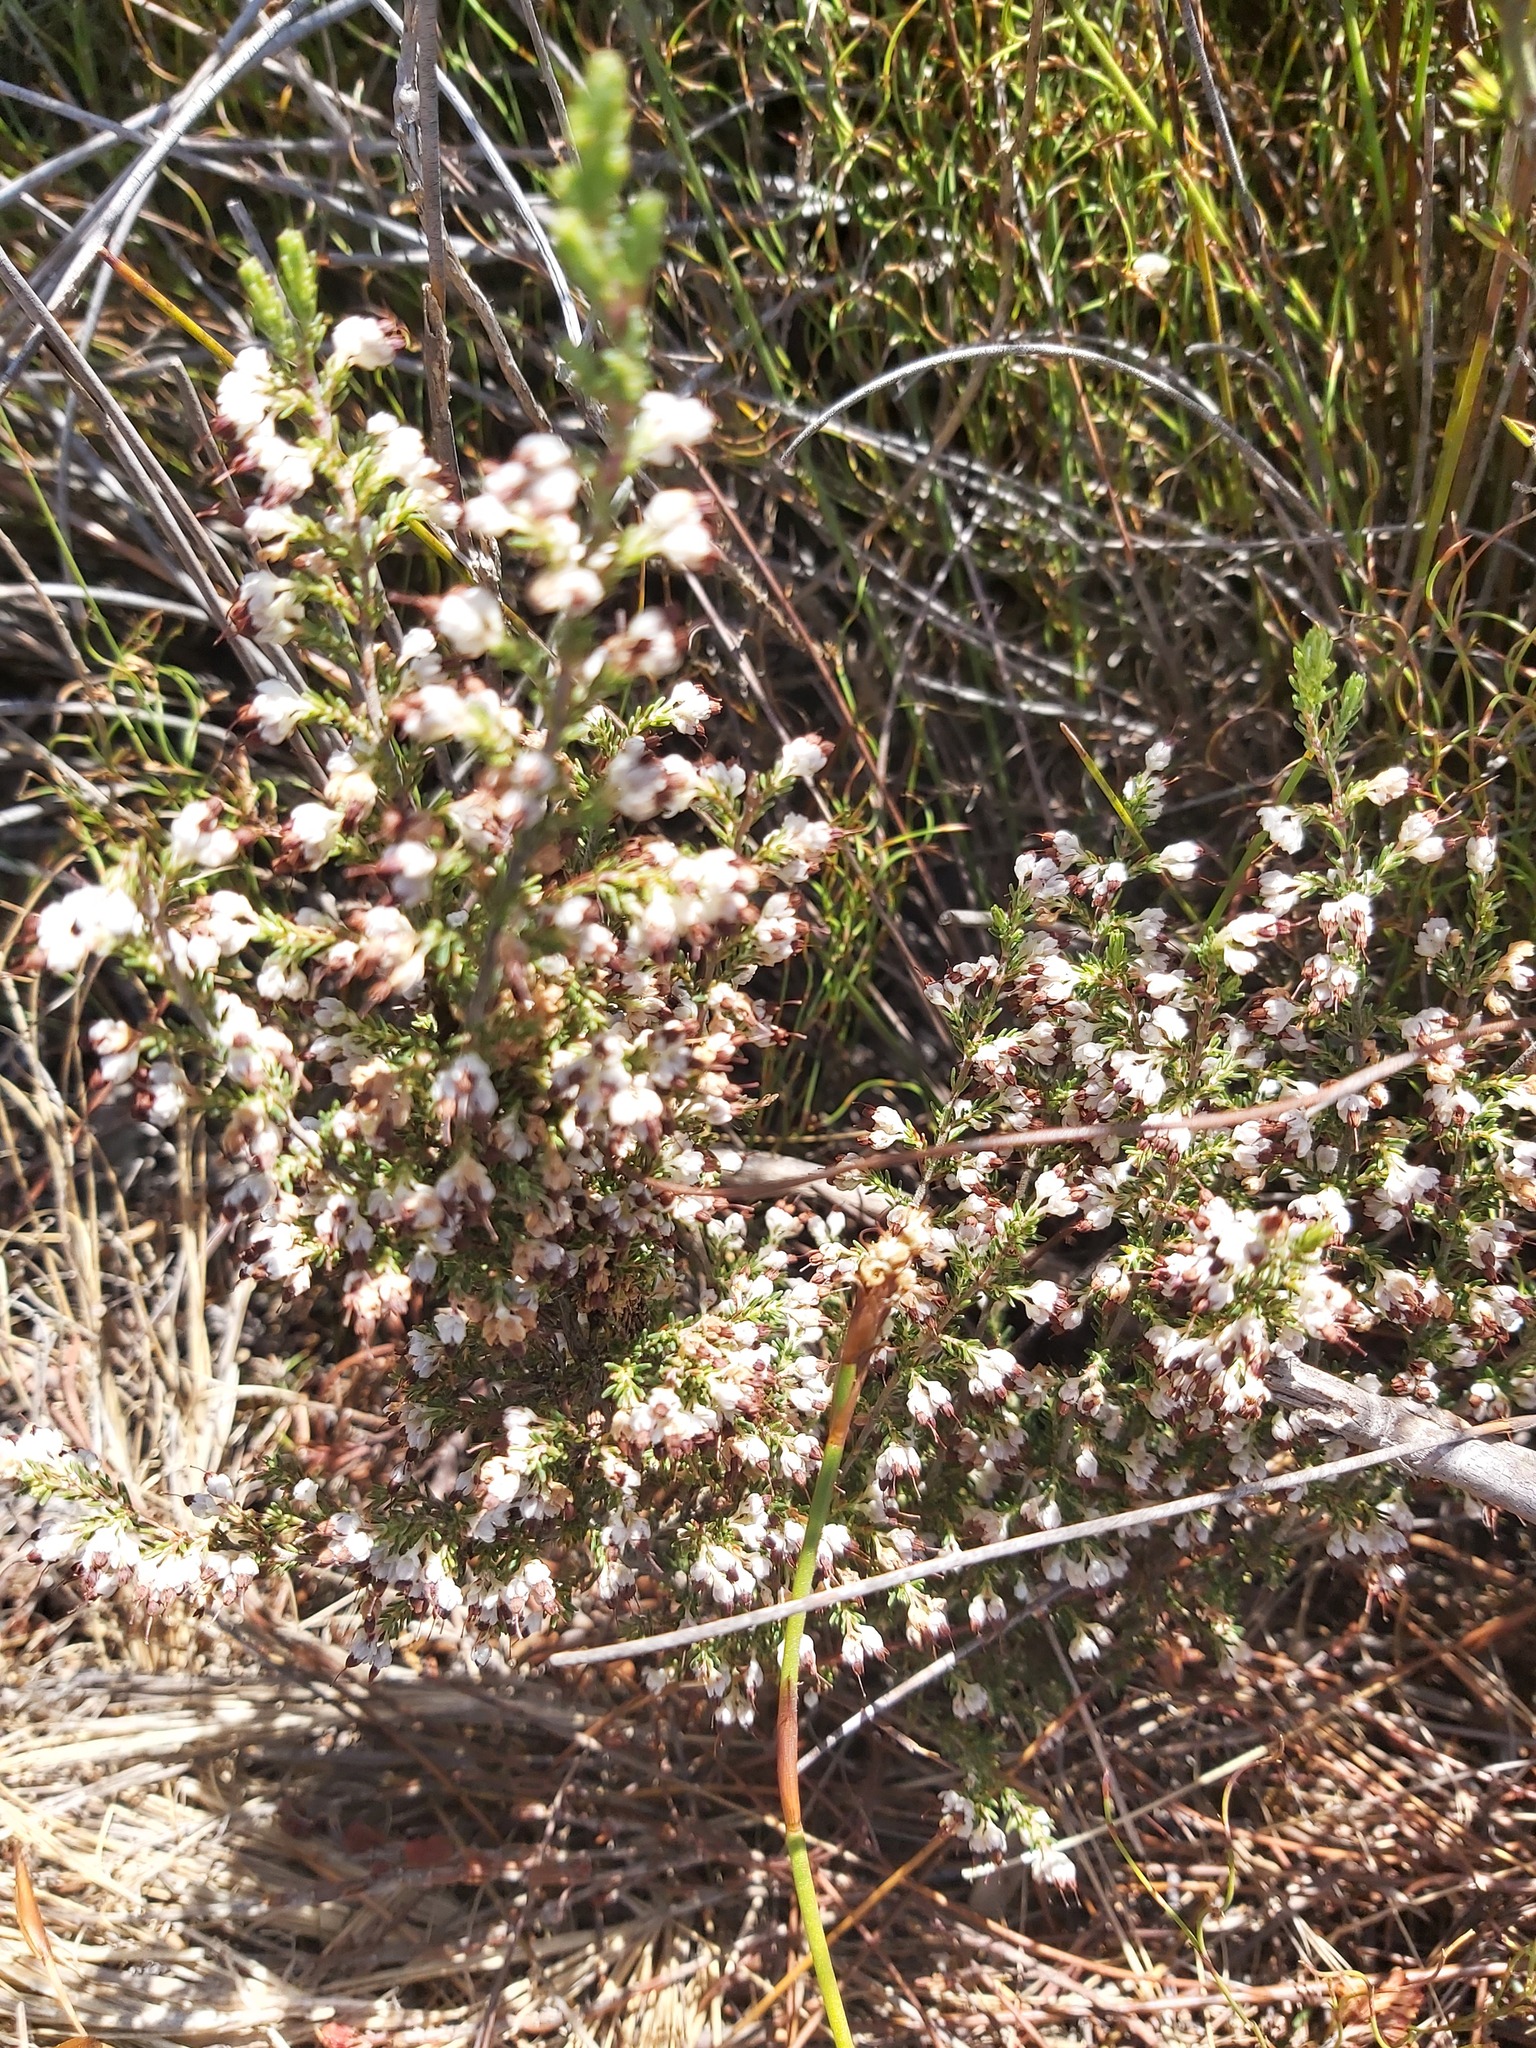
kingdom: Plantae
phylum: Tracheophyta
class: Magnoliopsida
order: Ericales
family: Ericaceae
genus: Erica
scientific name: Erica imbricata
